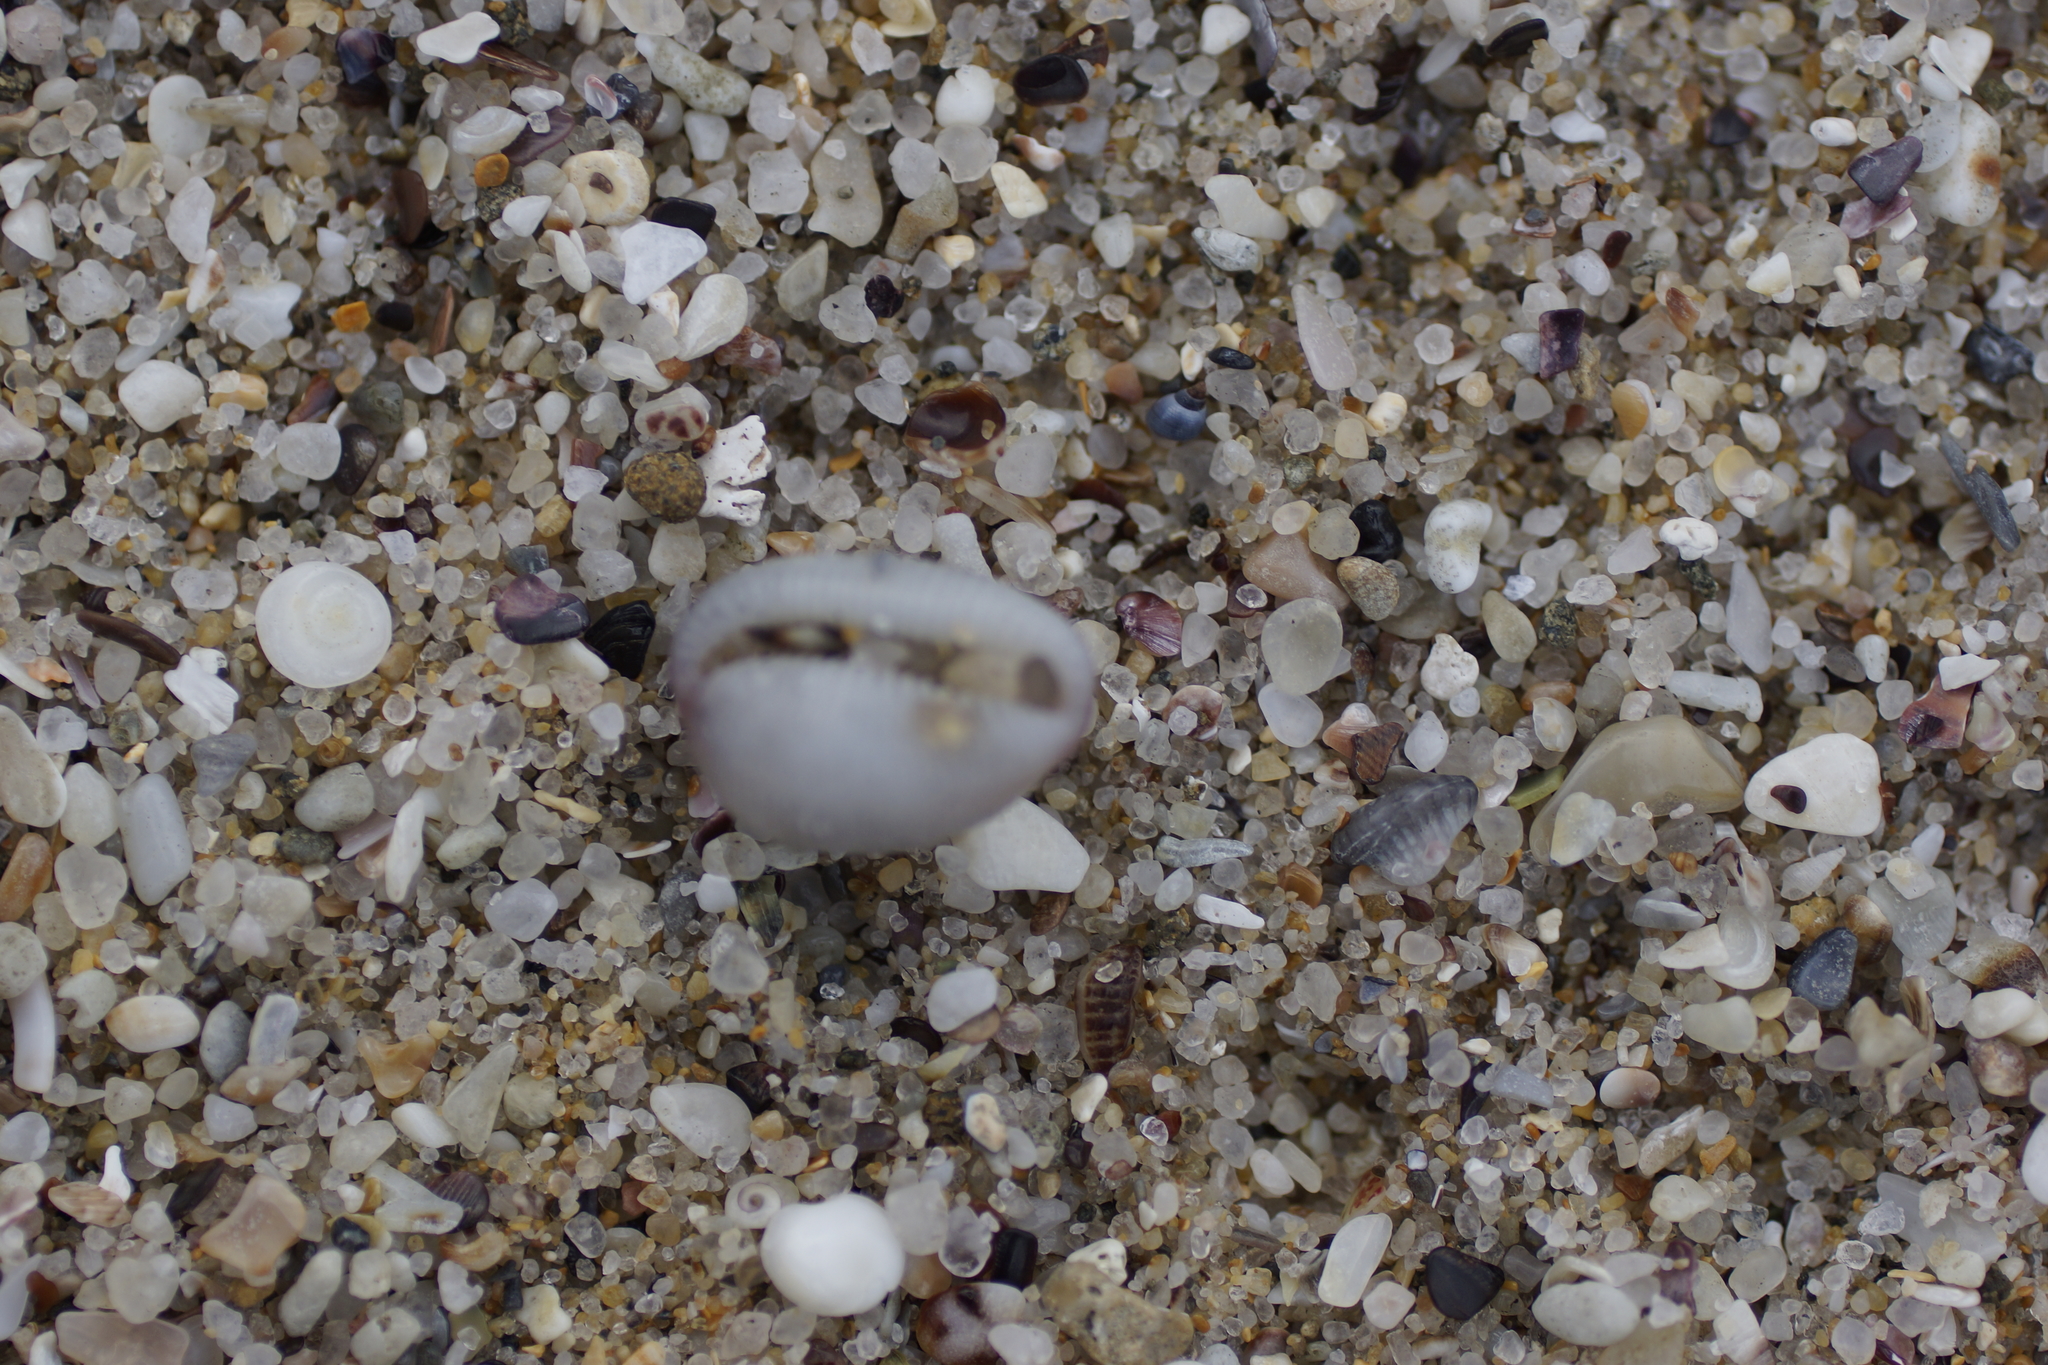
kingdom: Animalia
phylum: Mollusca
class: Gastropoda
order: Littorinimorpha
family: Triviidae
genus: Ellatrivia
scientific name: Ellatrivia merces
